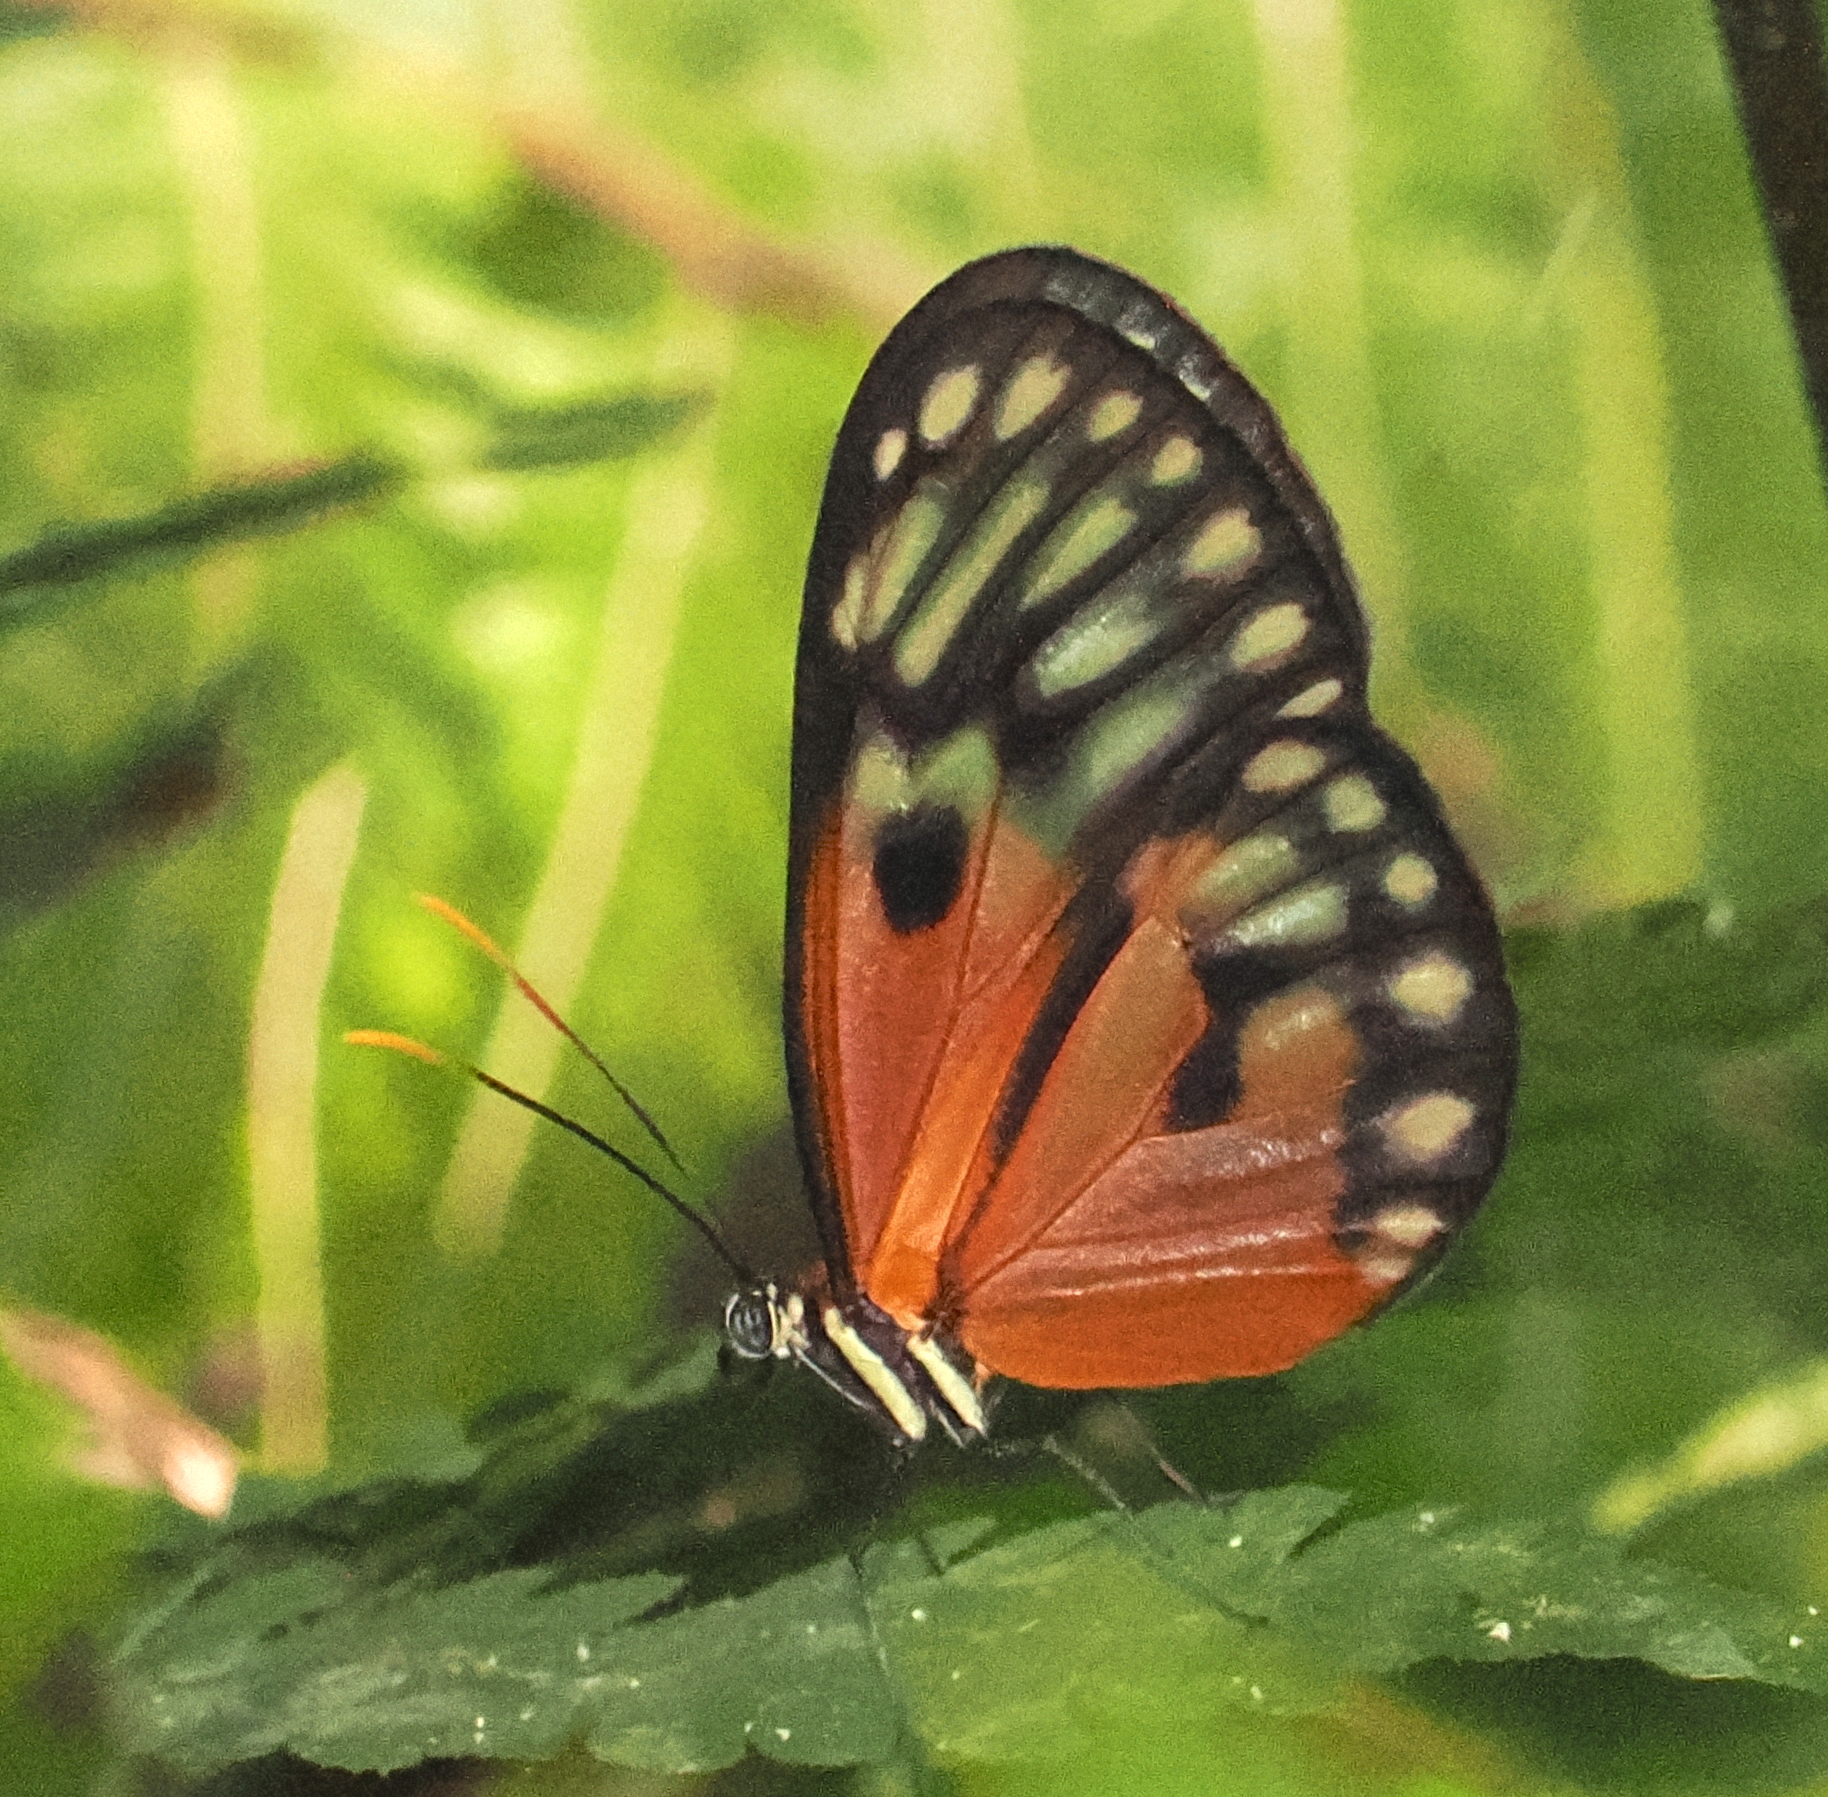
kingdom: Animalia
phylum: Arthropoda
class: Insecta
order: Lepidoptera
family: Nymphalidae
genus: Napeogenes
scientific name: Napeogenes stella
